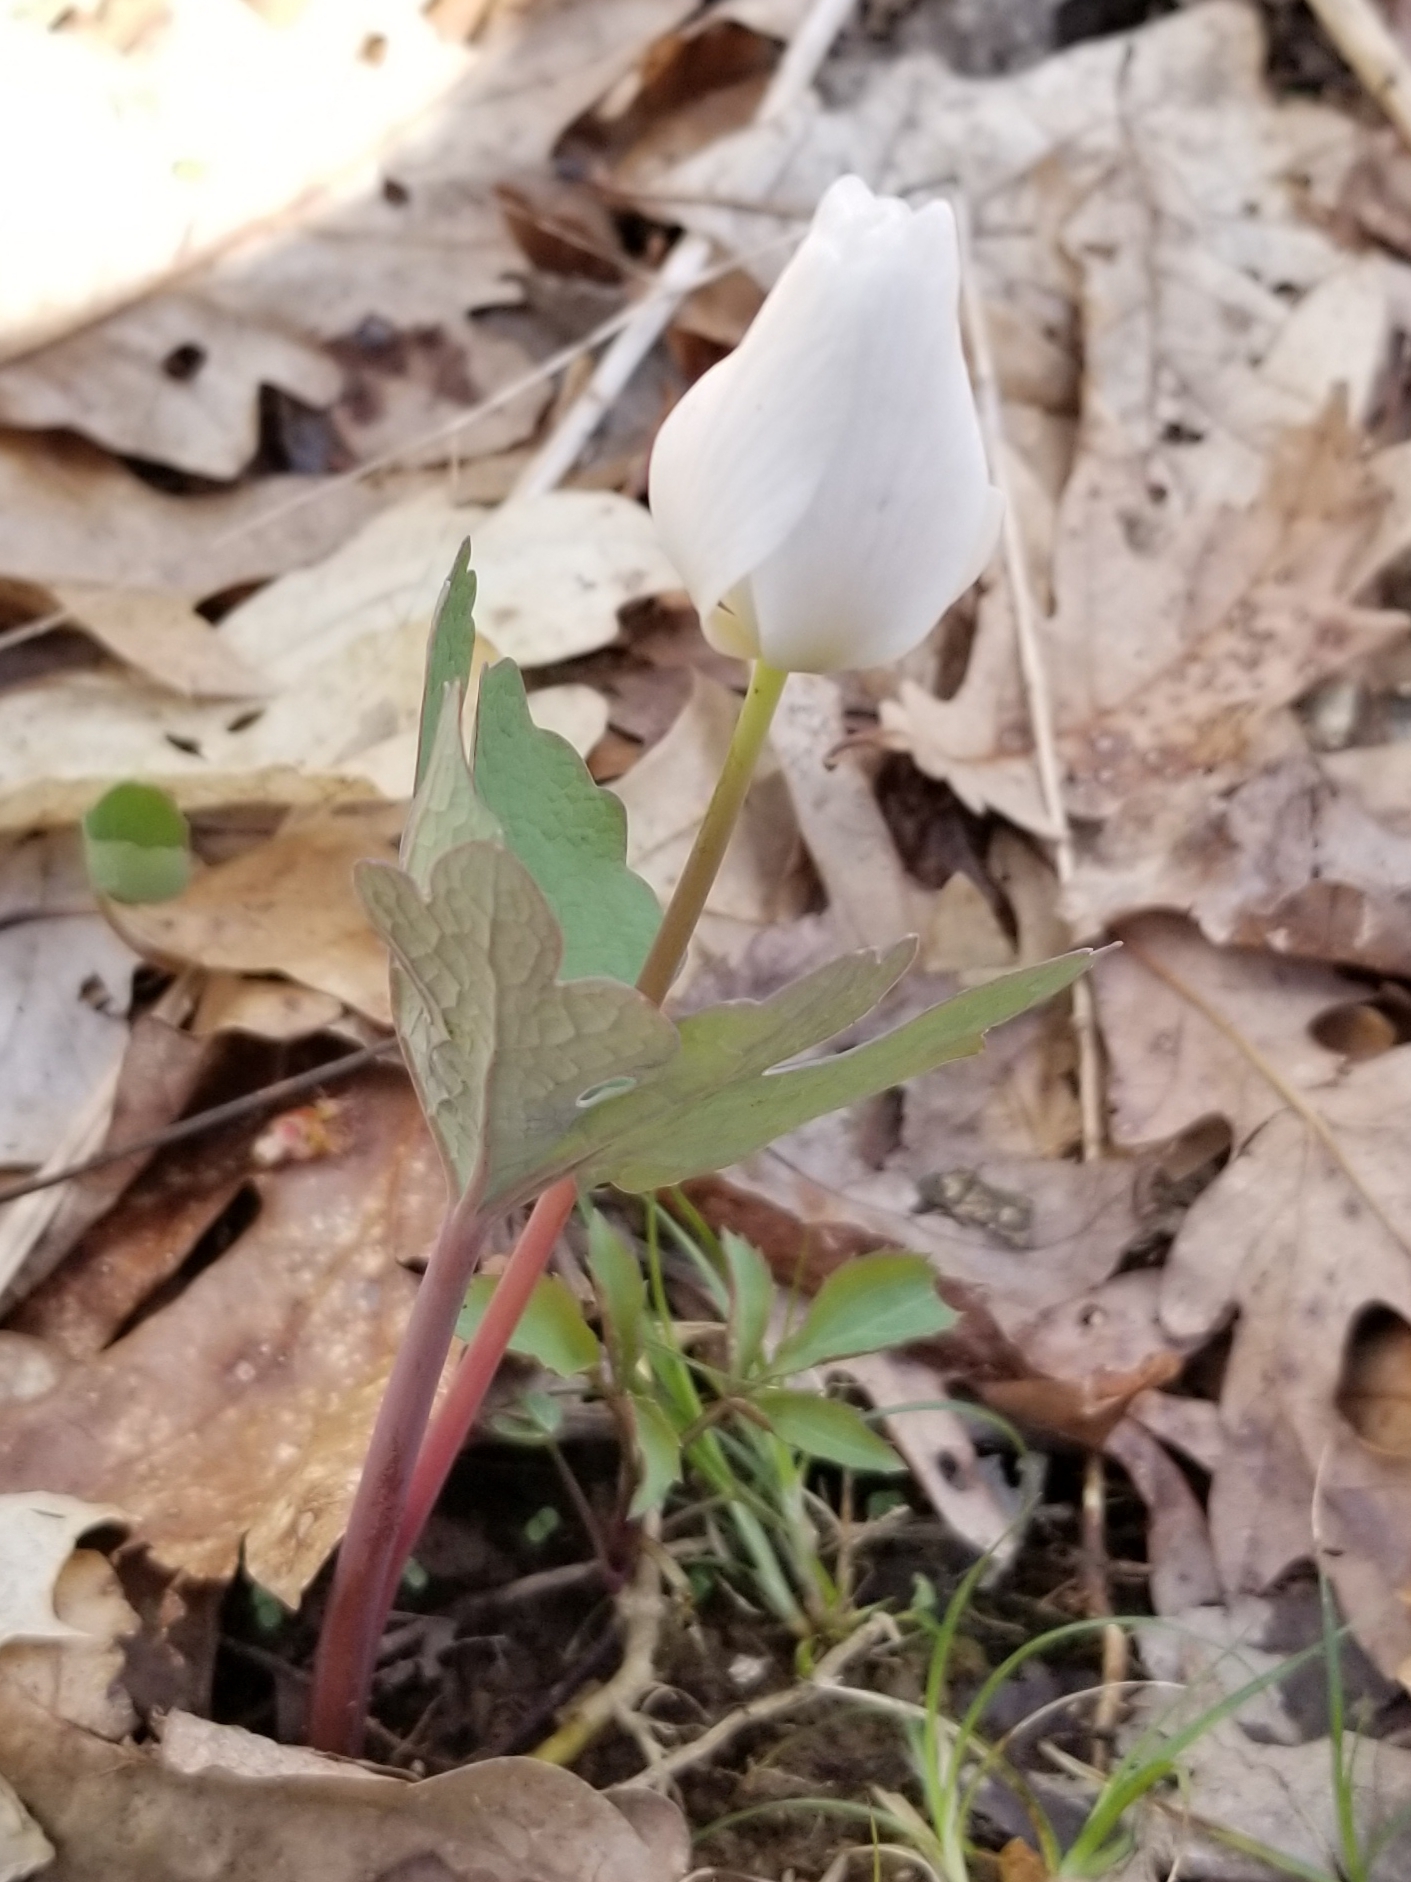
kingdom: Plantae
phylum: Tracheophyta
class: Magnoliopsida
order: Ranunculales
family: Papaveraceae
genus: Sanguinaria
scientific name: Sanguinaria canadensis
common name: Bloodroot
